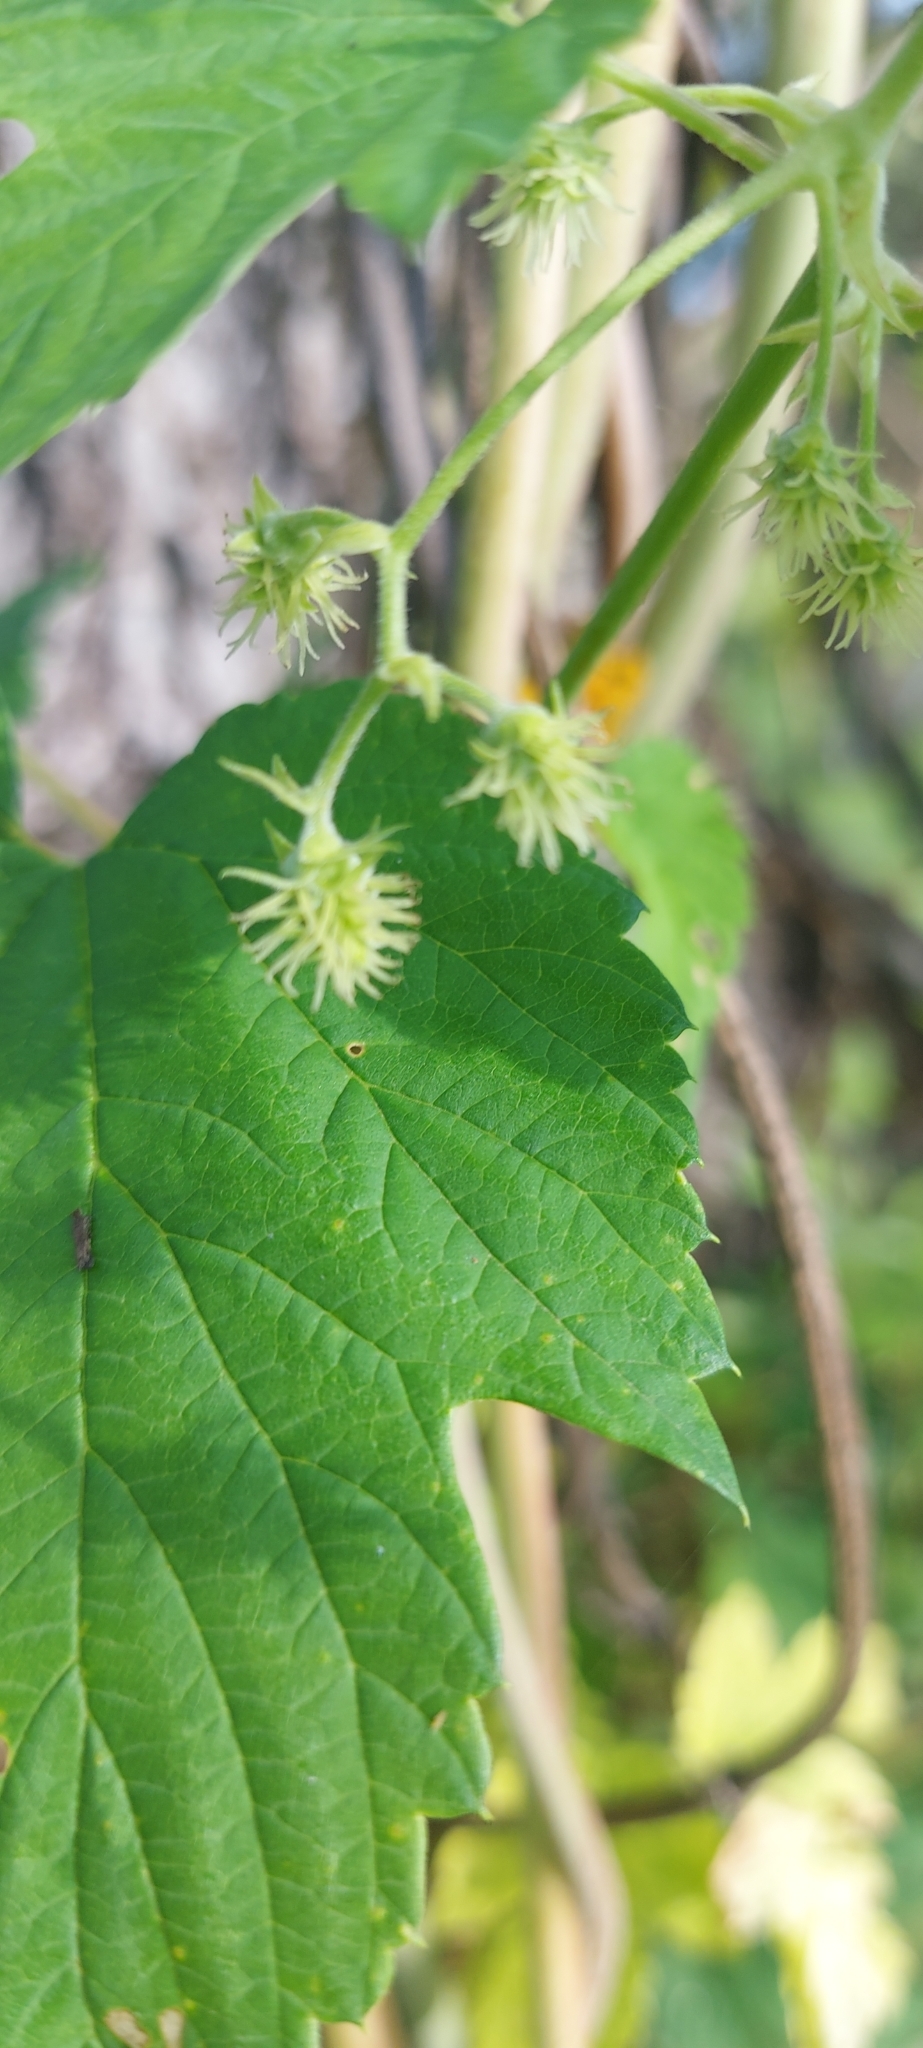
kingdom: Plantae
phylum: Tracheophyta
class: Magnoliopsida
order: Rosales
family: Cannabaceae
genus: Humulus
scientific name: Humulus lupulus
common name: Hop
